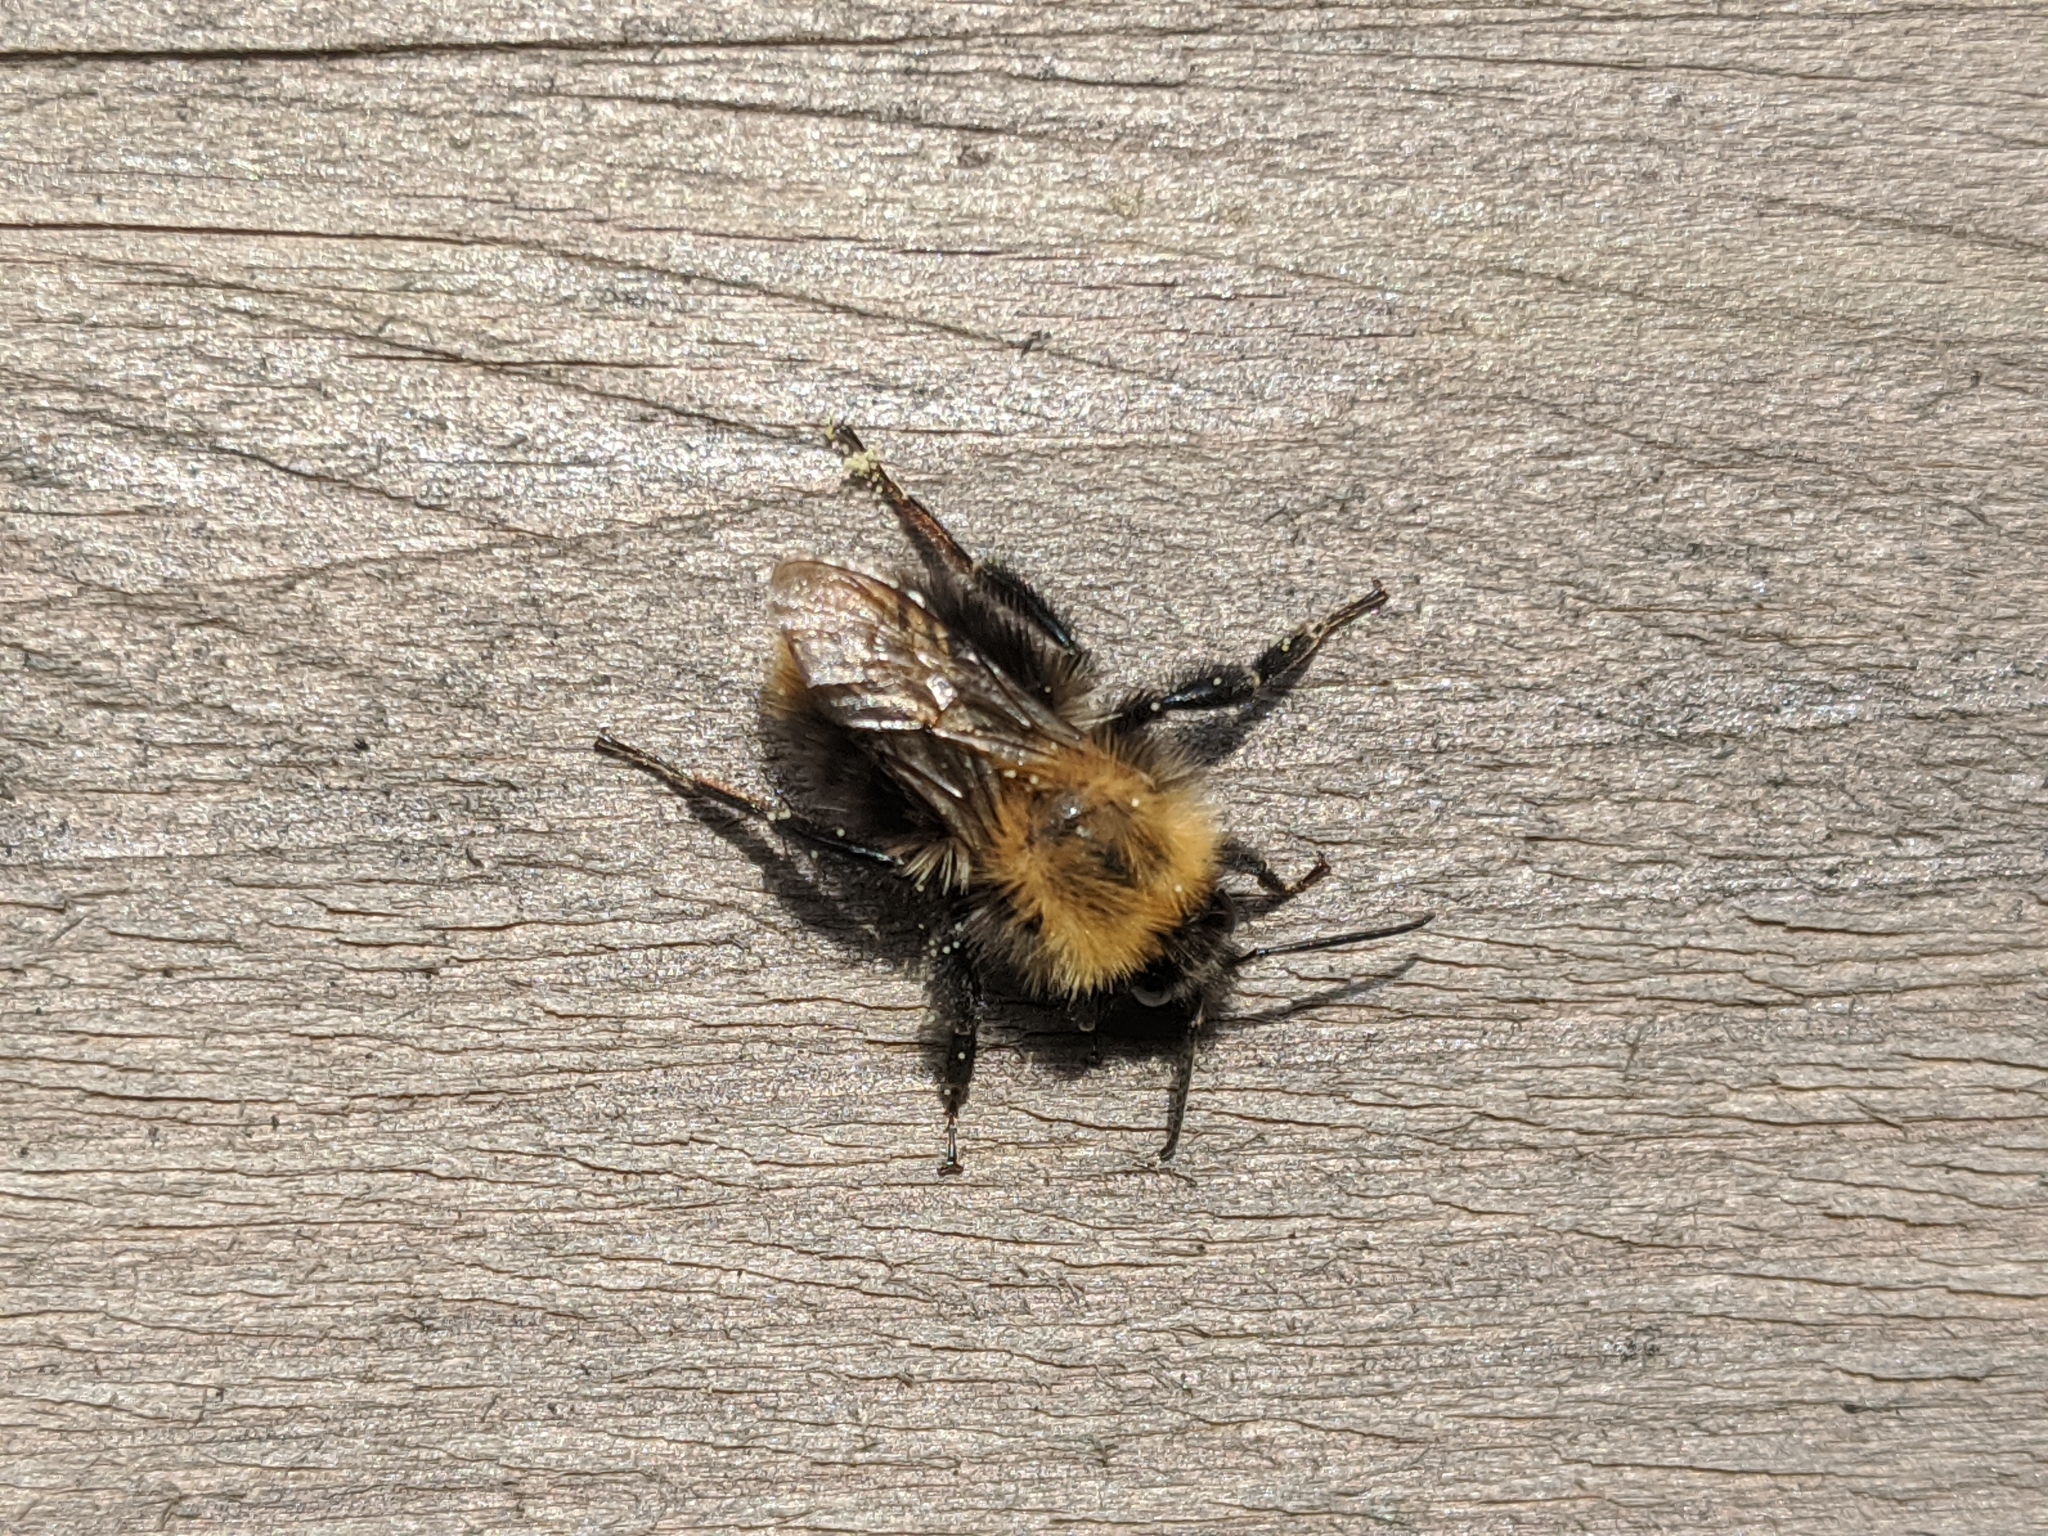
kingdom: Animalia
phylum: Arthropoda
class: Insecta
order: Hymenoptera
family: Apidae
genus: Bombus
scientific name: Bombus pascuorum
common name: Common carder bee
